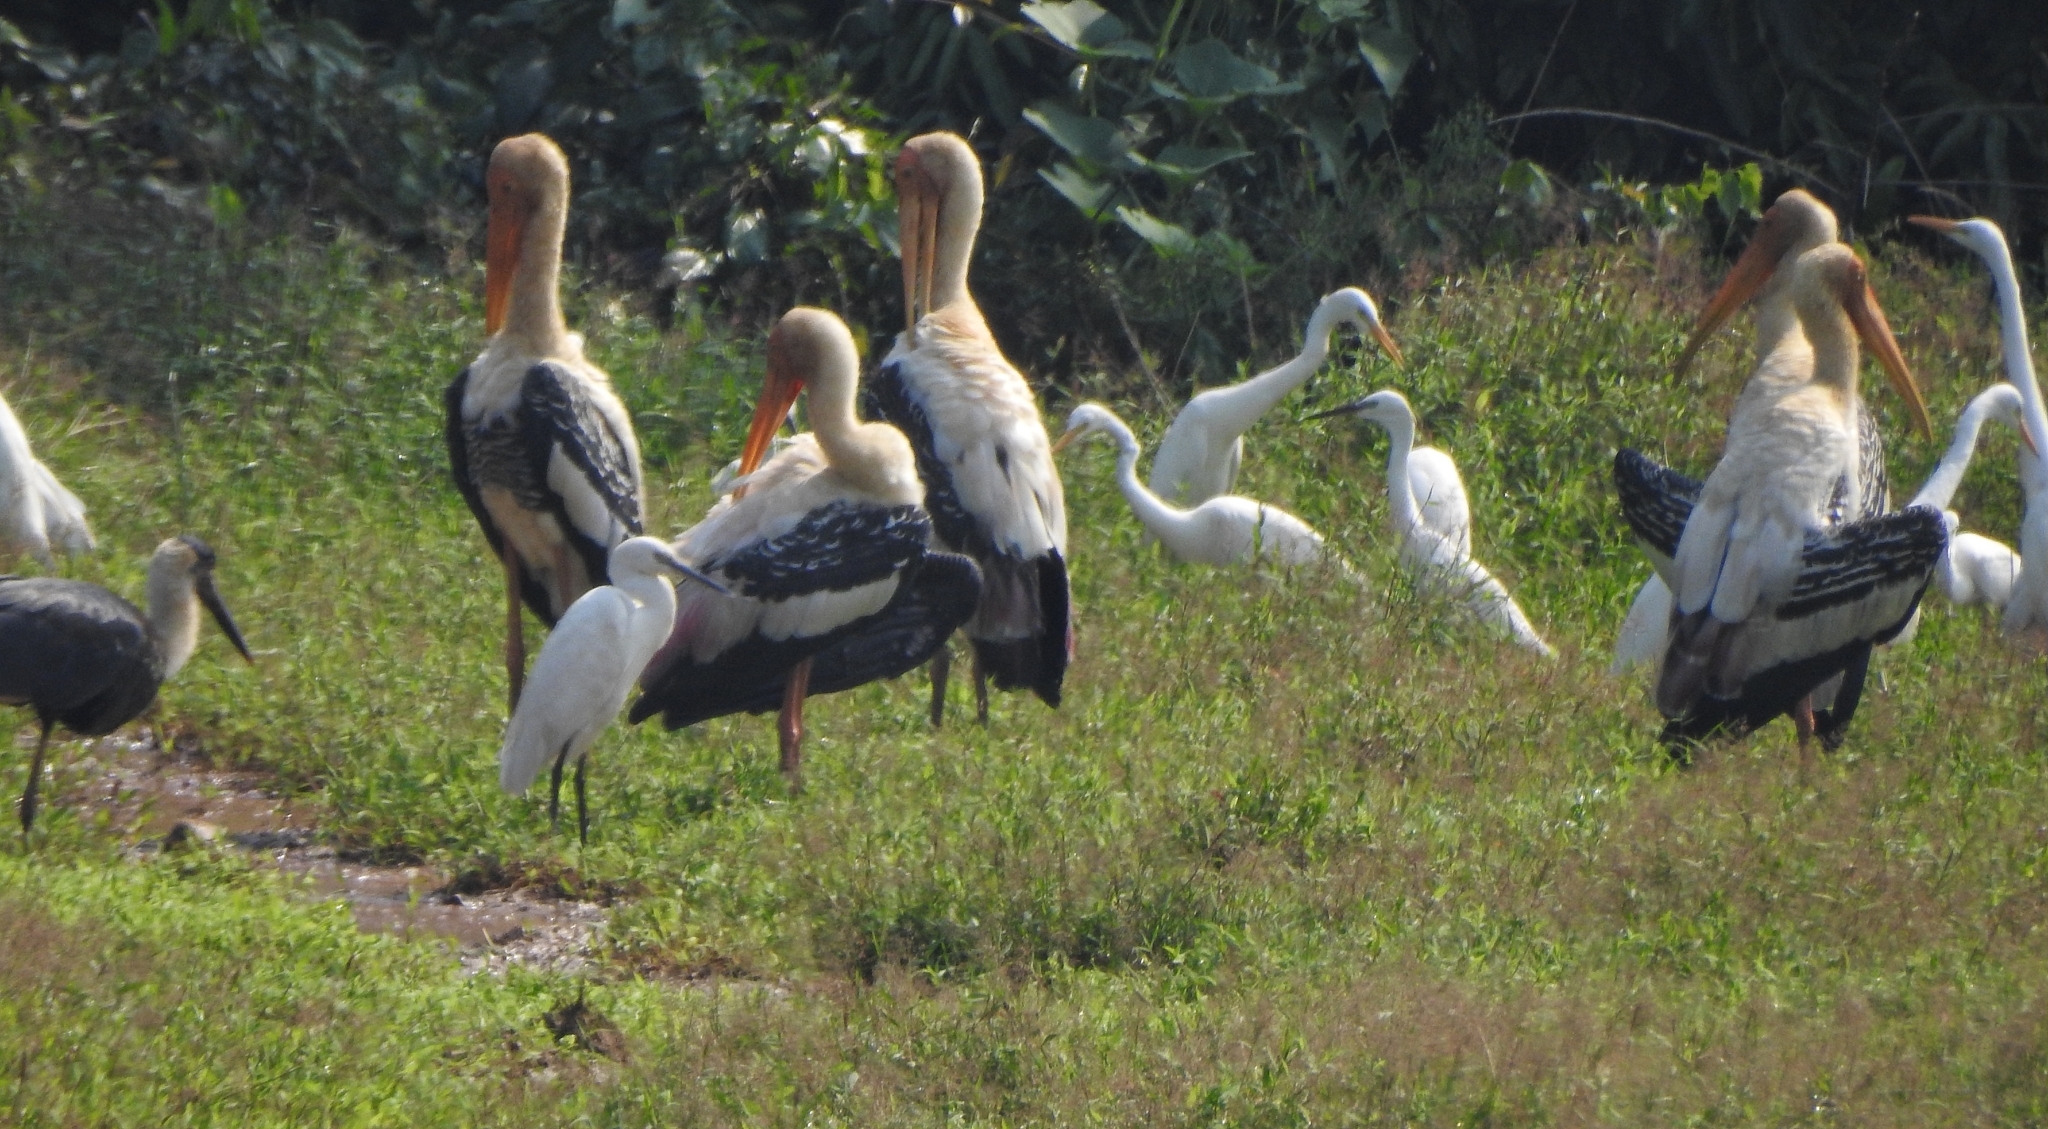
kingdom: Animalia
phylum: Chordata
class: Aves
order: Ciconiiformes
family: Ciconiidae
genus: Mycteria
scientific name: Mycteria leucocephala
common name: Painted stork
